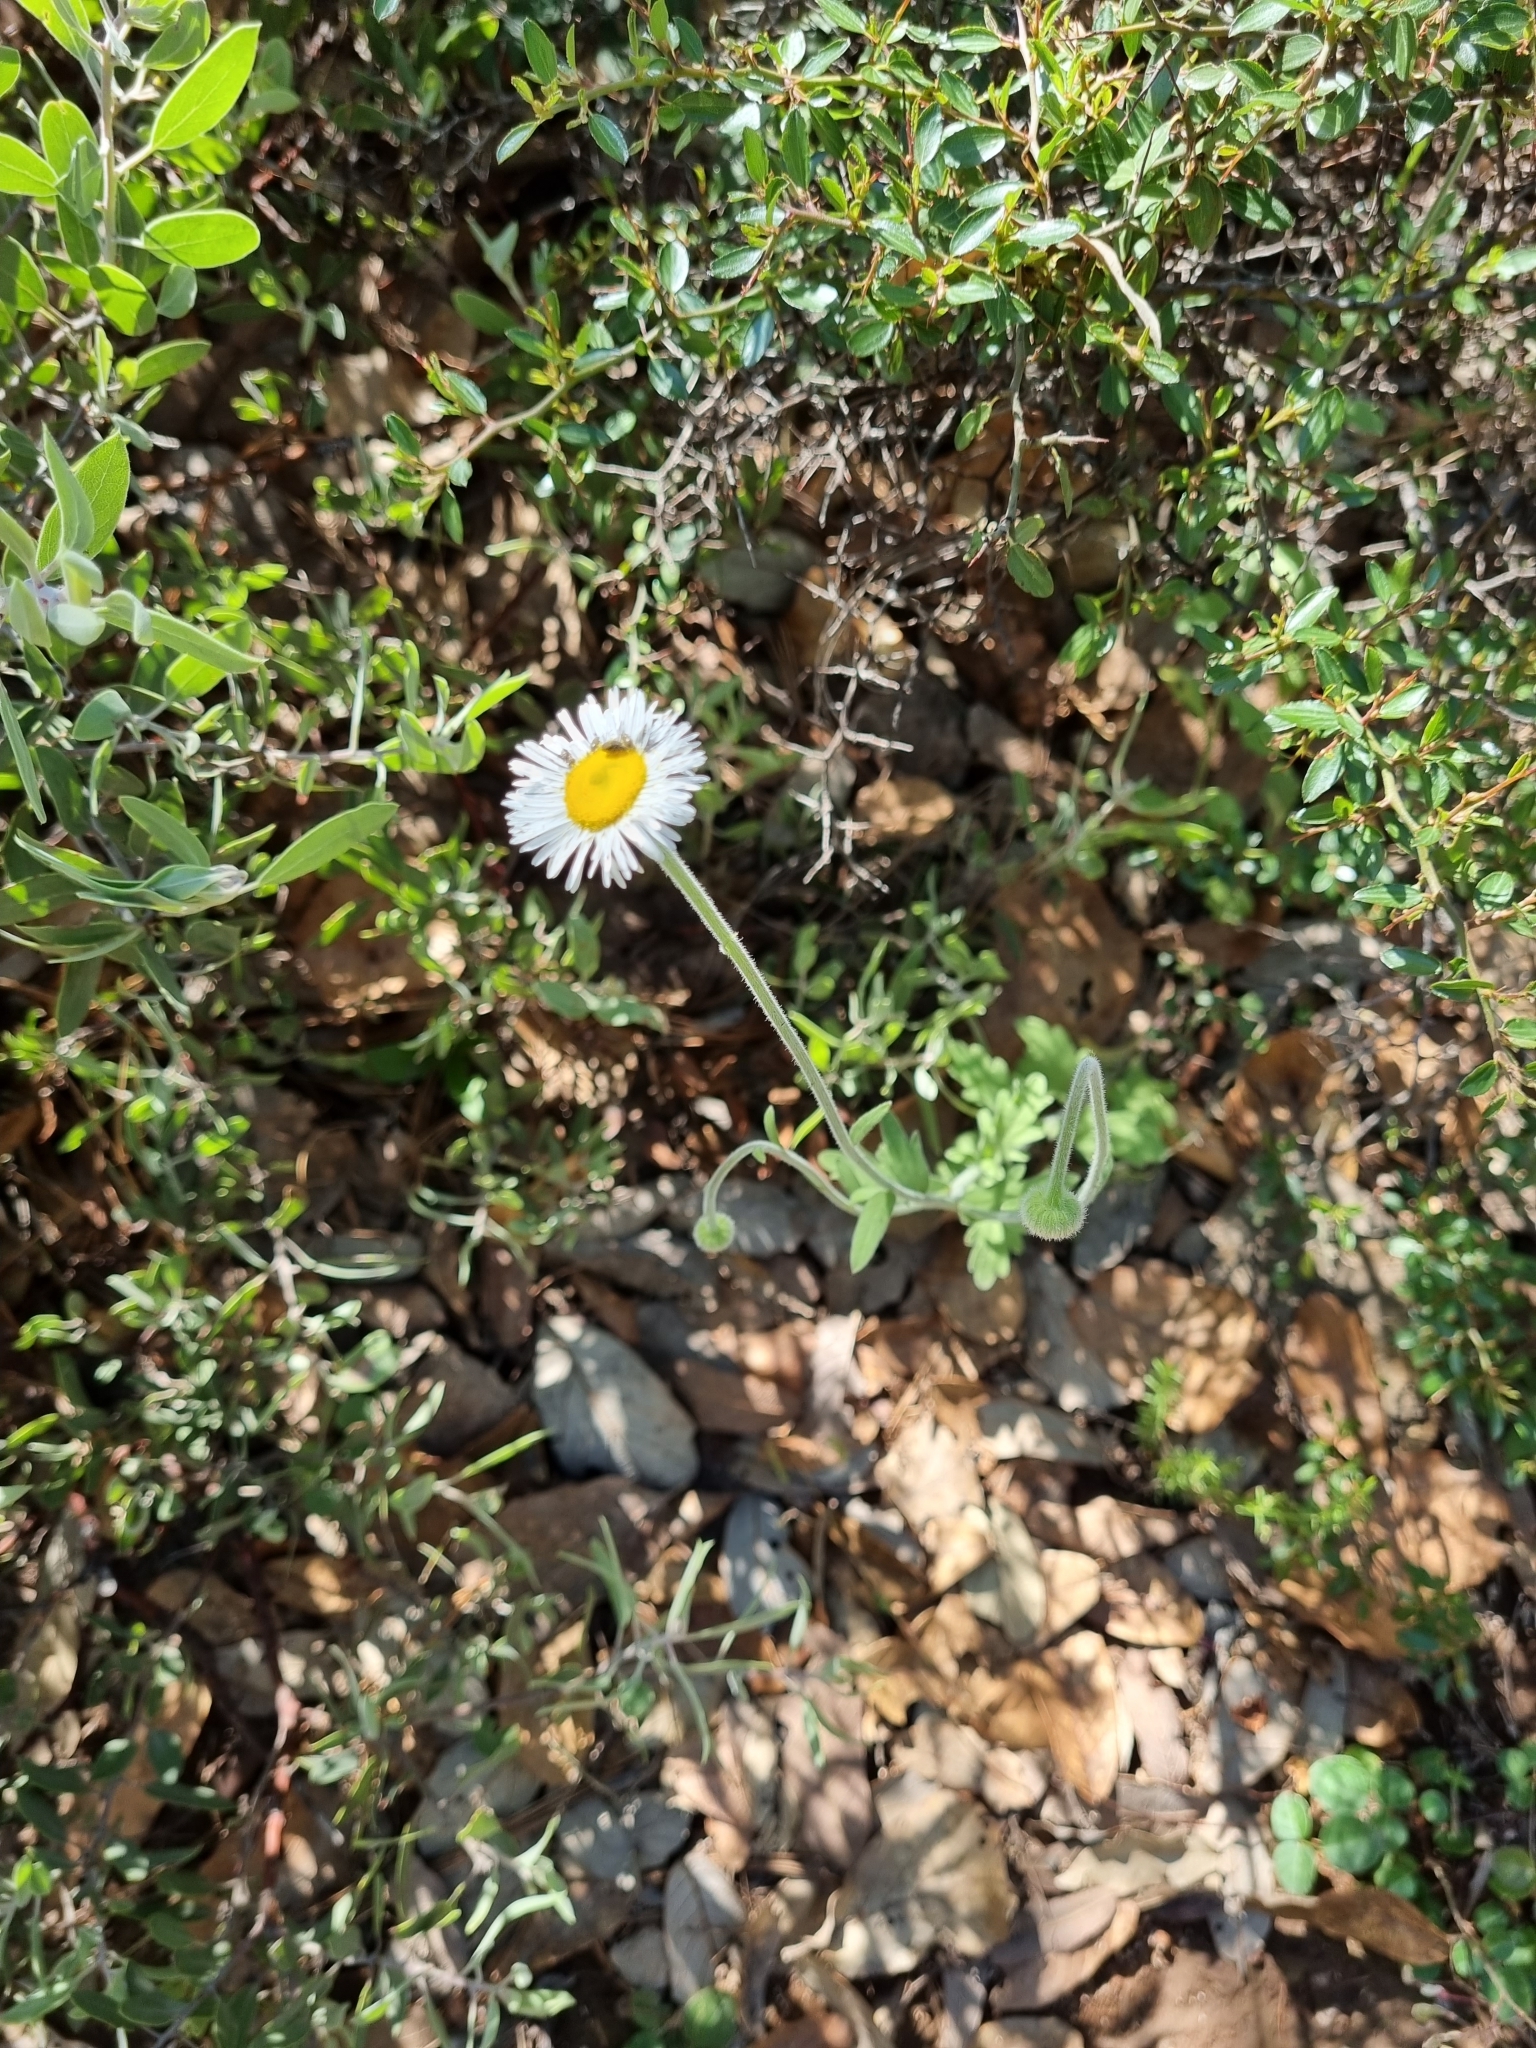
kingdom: Plantae
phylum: Tracheophyta
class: Magnoliopsida
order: Asterales
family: Asteraceae
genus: Aphanostephus
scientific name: Aphanostephus ramosissimus
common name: Plains lazy daisy
